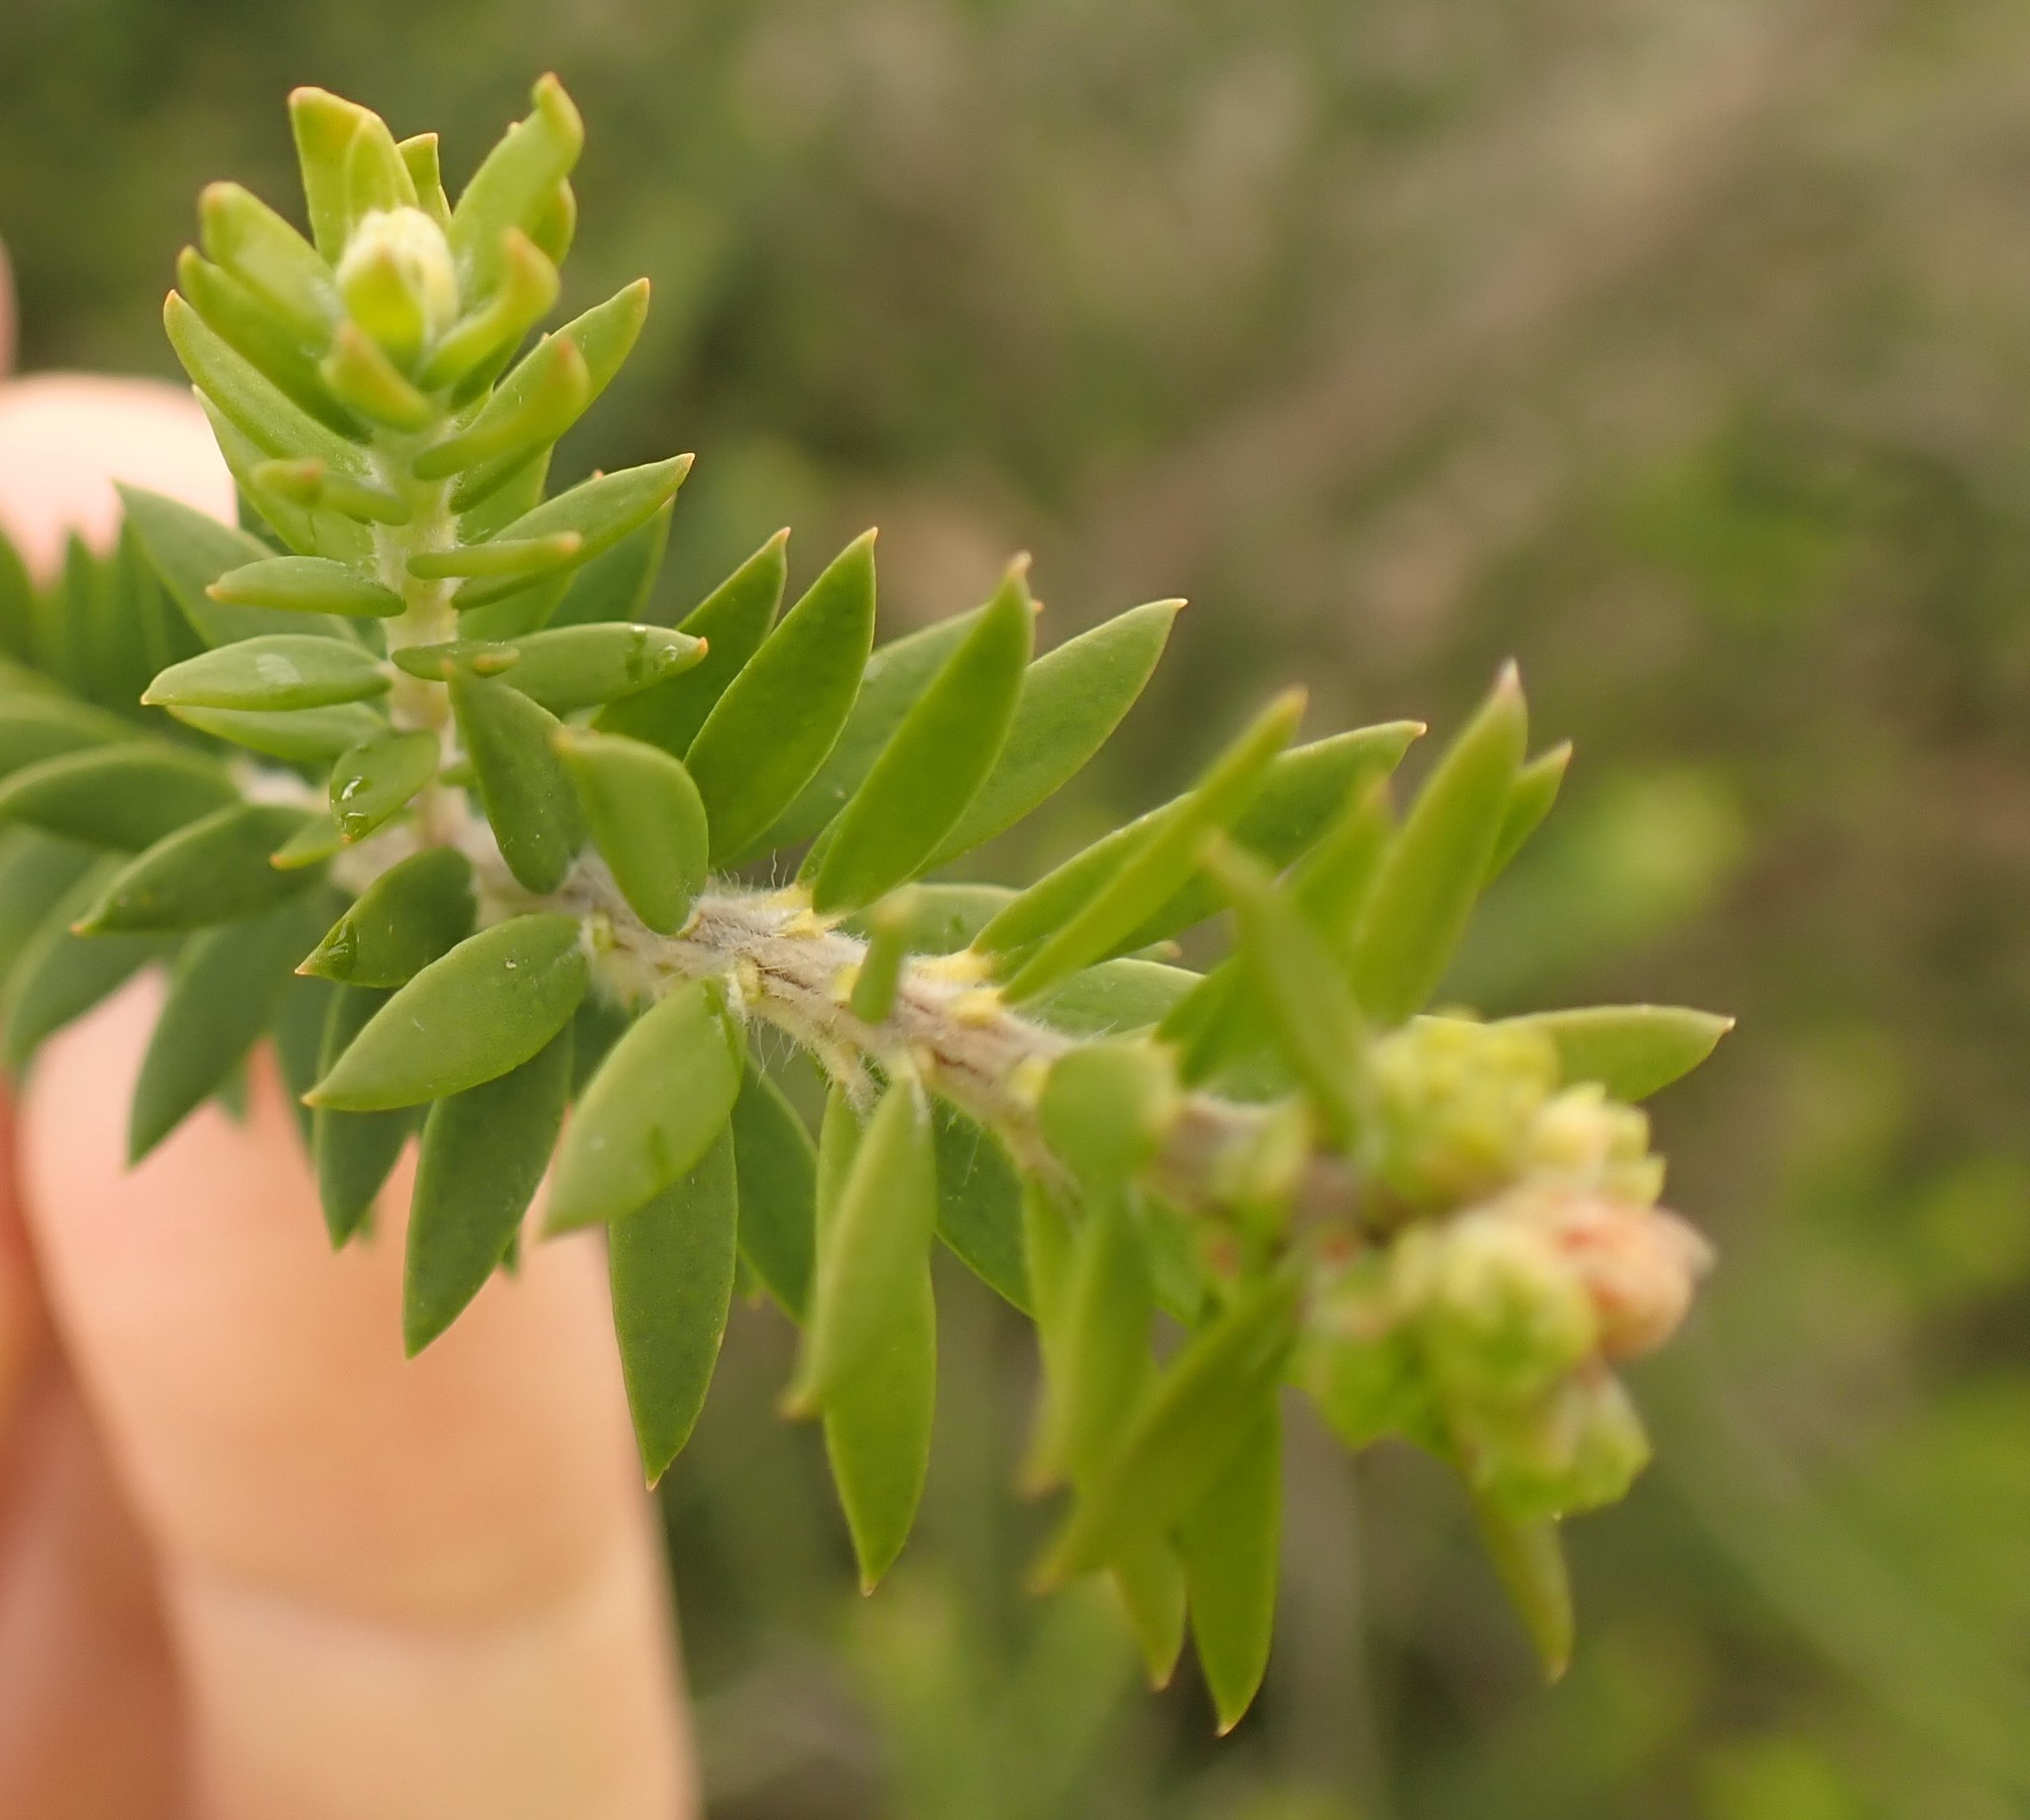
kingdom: Plantae
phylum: Tracheophyta
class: Magnoliopsida
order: Myrtales
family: Myrtaceae
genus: Melaleuca
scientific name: Melaleuca lanceolata
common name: Rottnest island teatree
